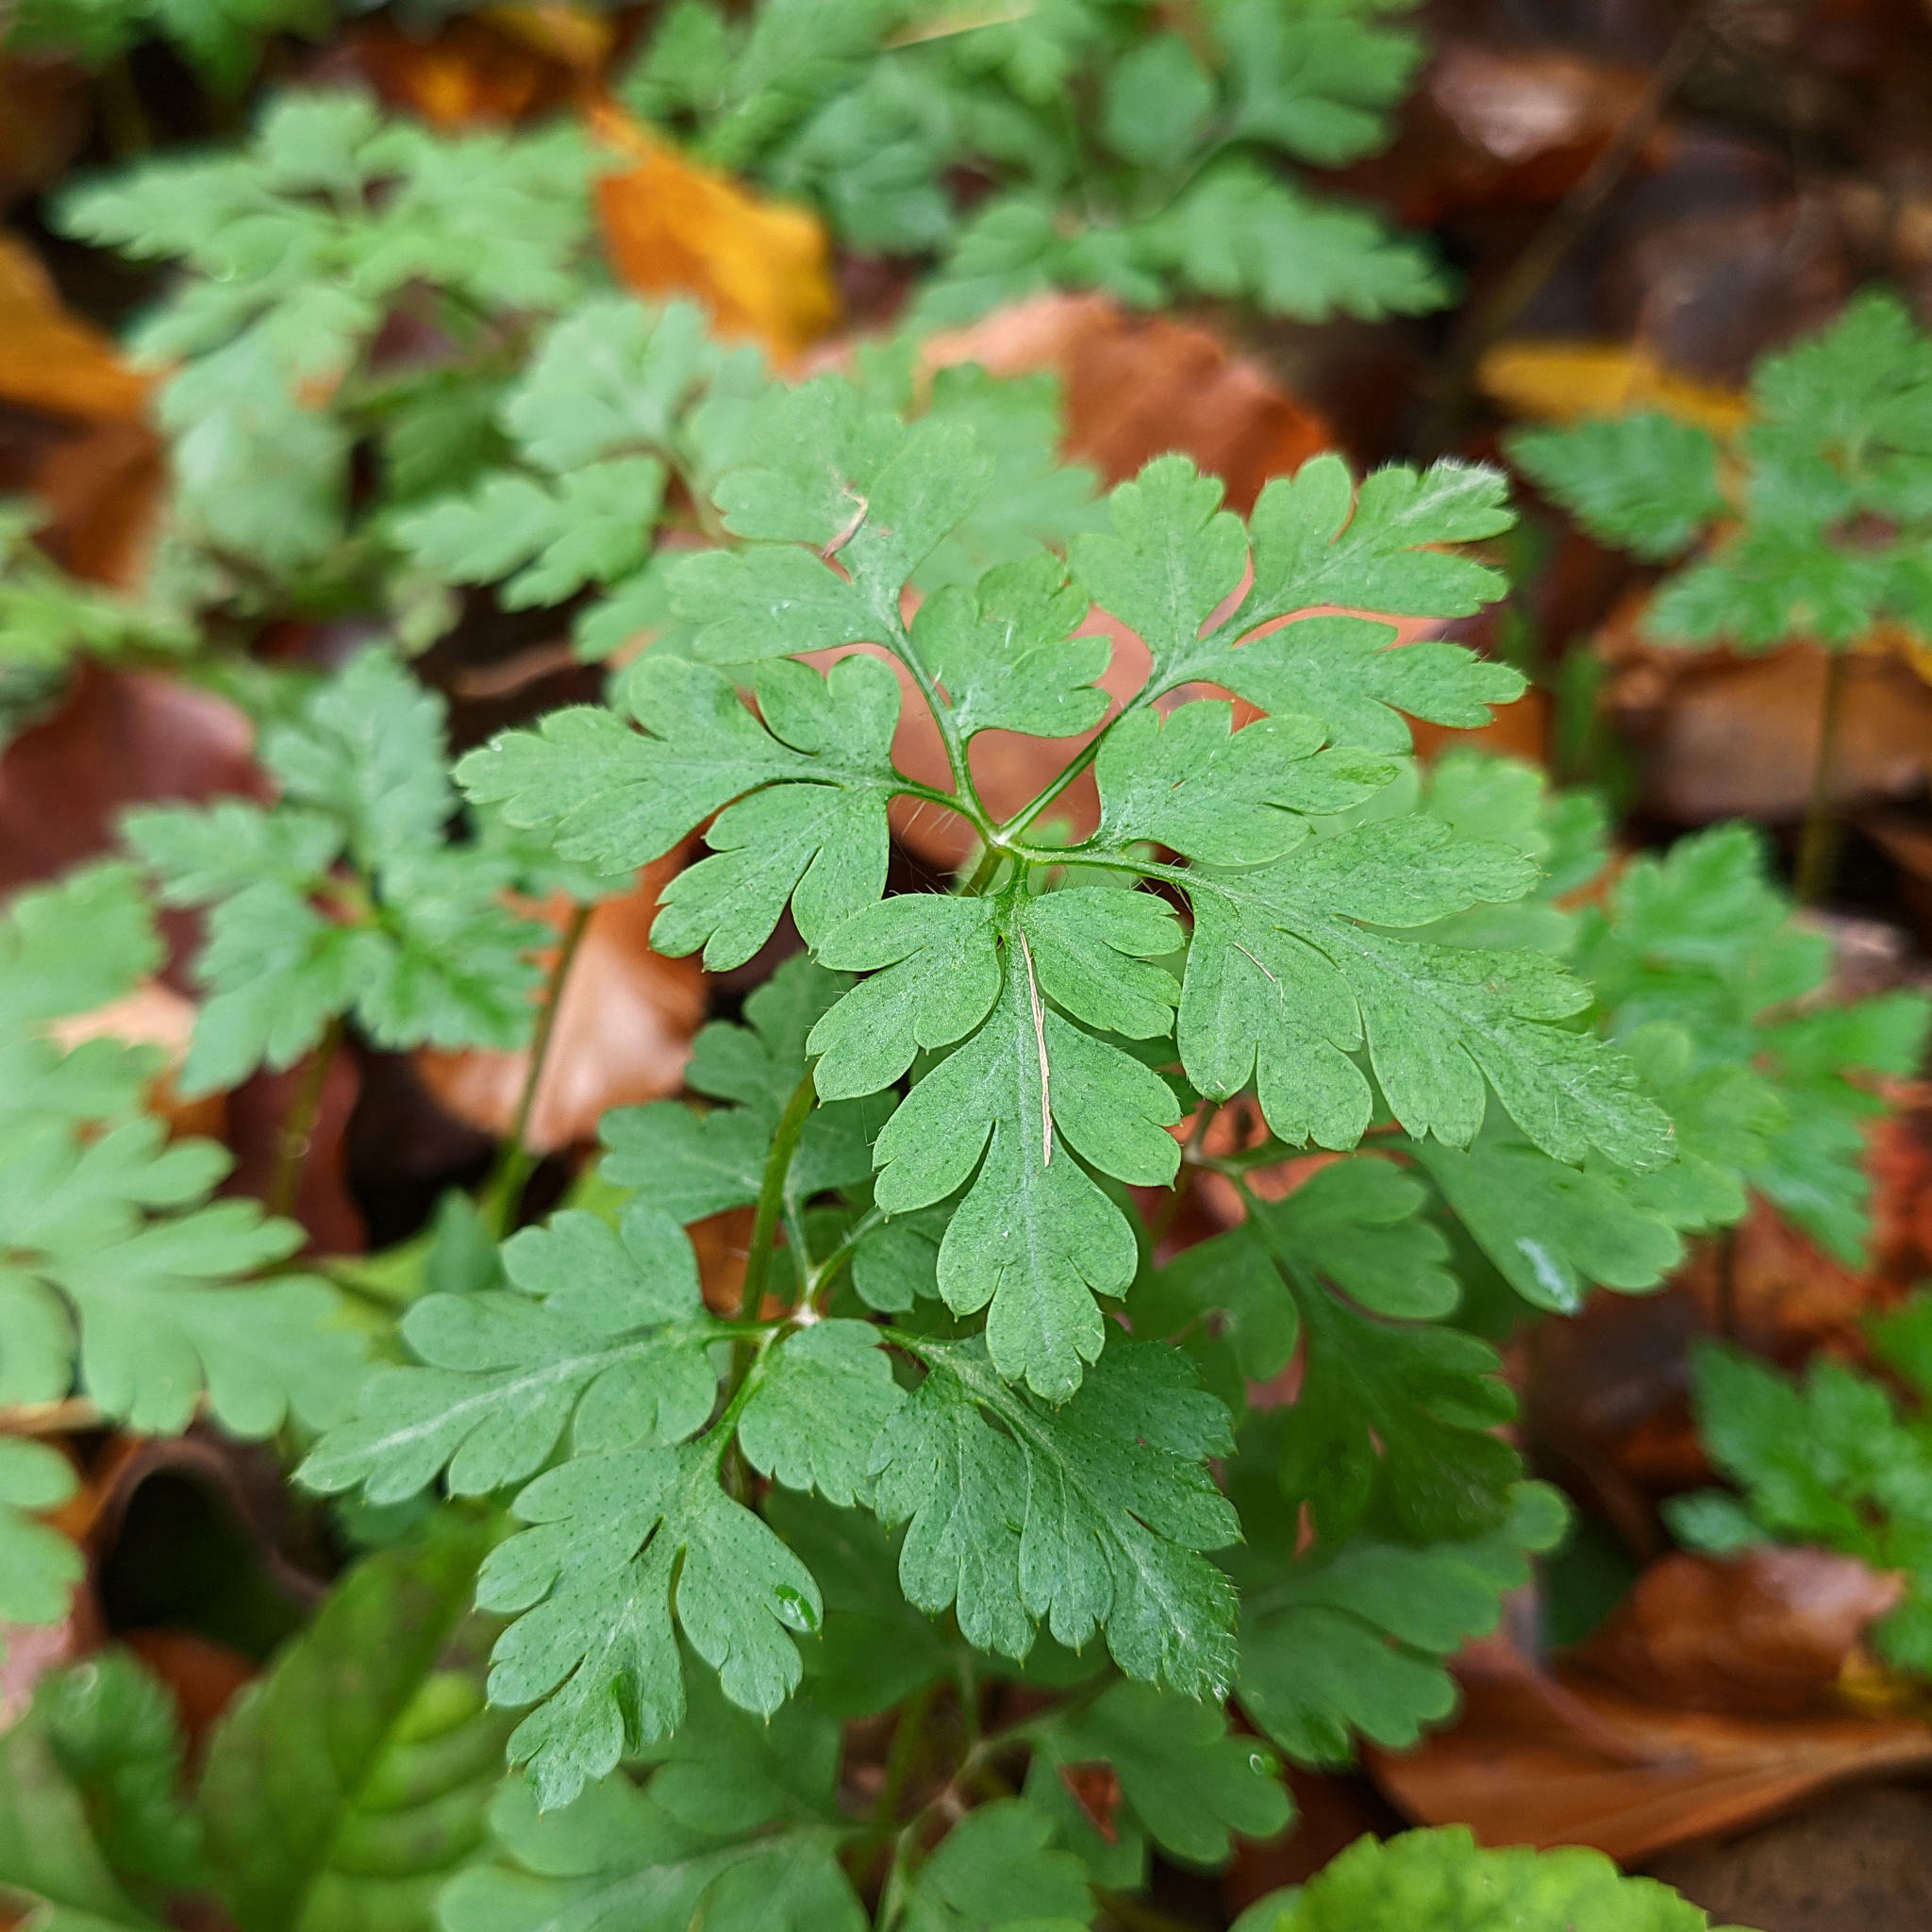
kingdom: Plantae
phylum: Tracheophyta
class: Magnoliopsida
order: Geraniales
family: Geraniaceae
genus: Geranium
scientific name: Geranium robertianum
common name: Herb-robert
